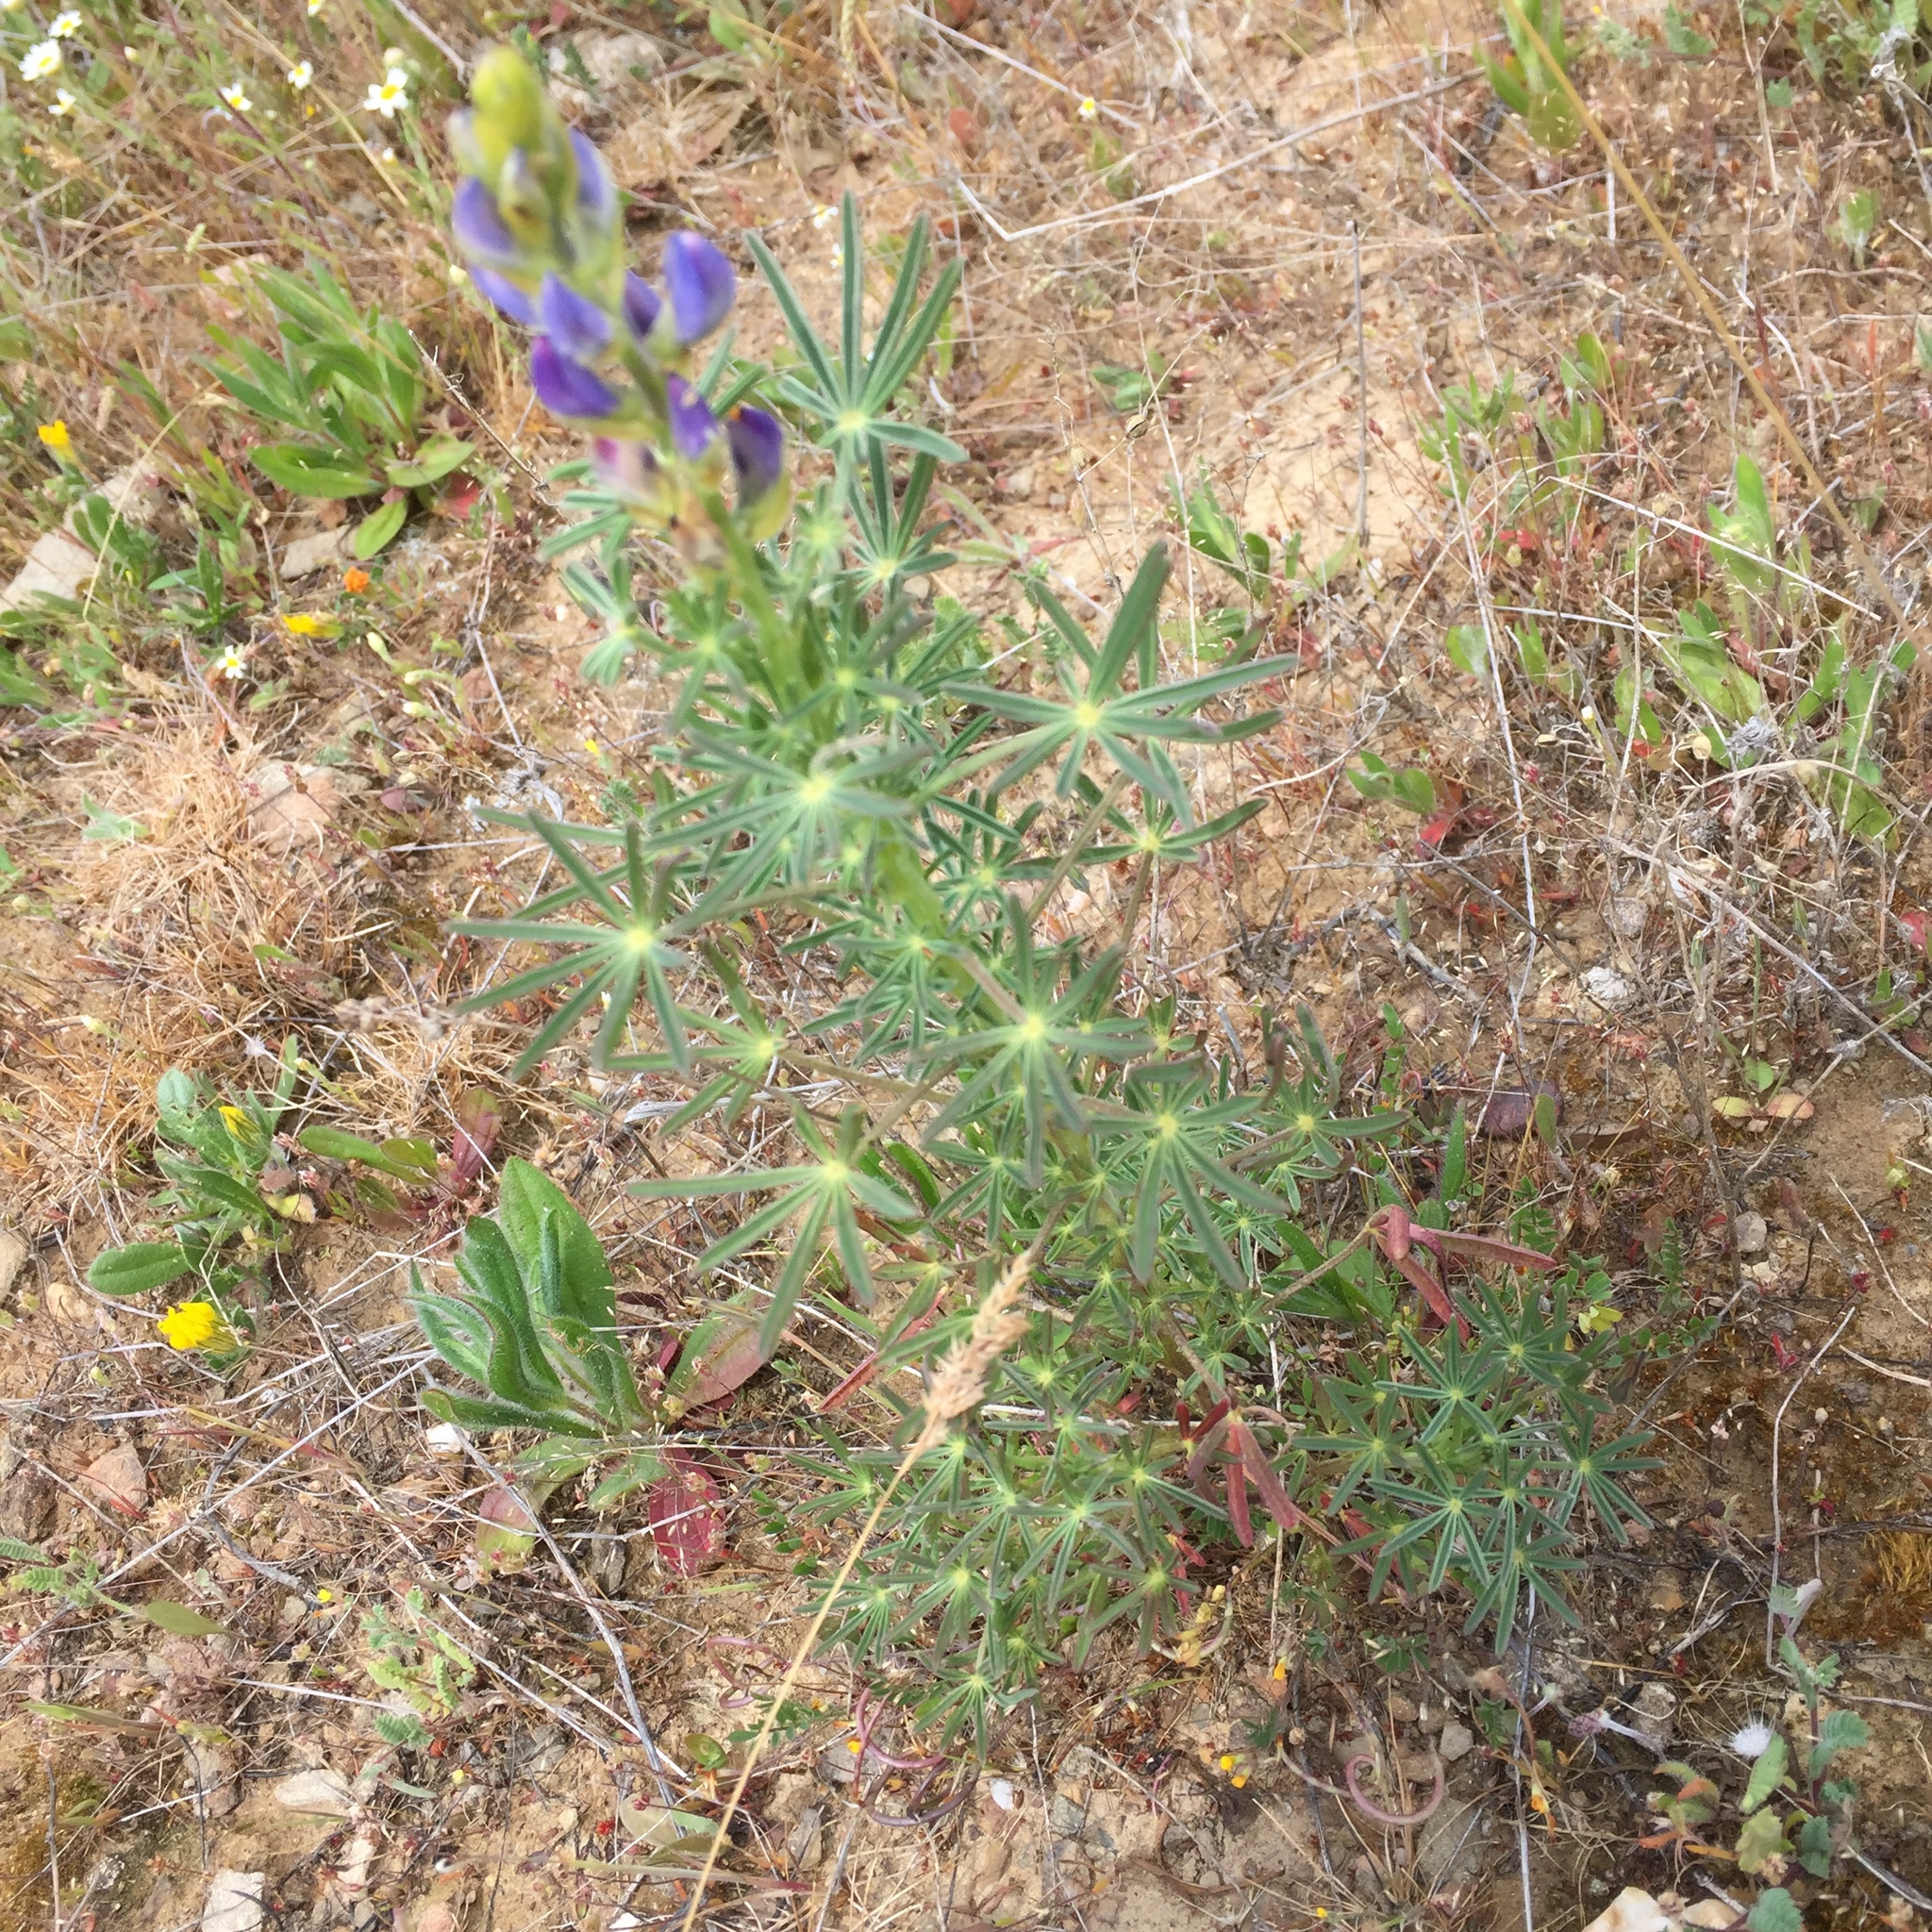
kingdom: Plantae
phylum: Tracheophyta
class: Magnoliopsida
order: Fabales
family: Fabaceae
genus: Lupinus
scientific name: Lupinus angustifolius
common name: Narrow-leaved lupin
